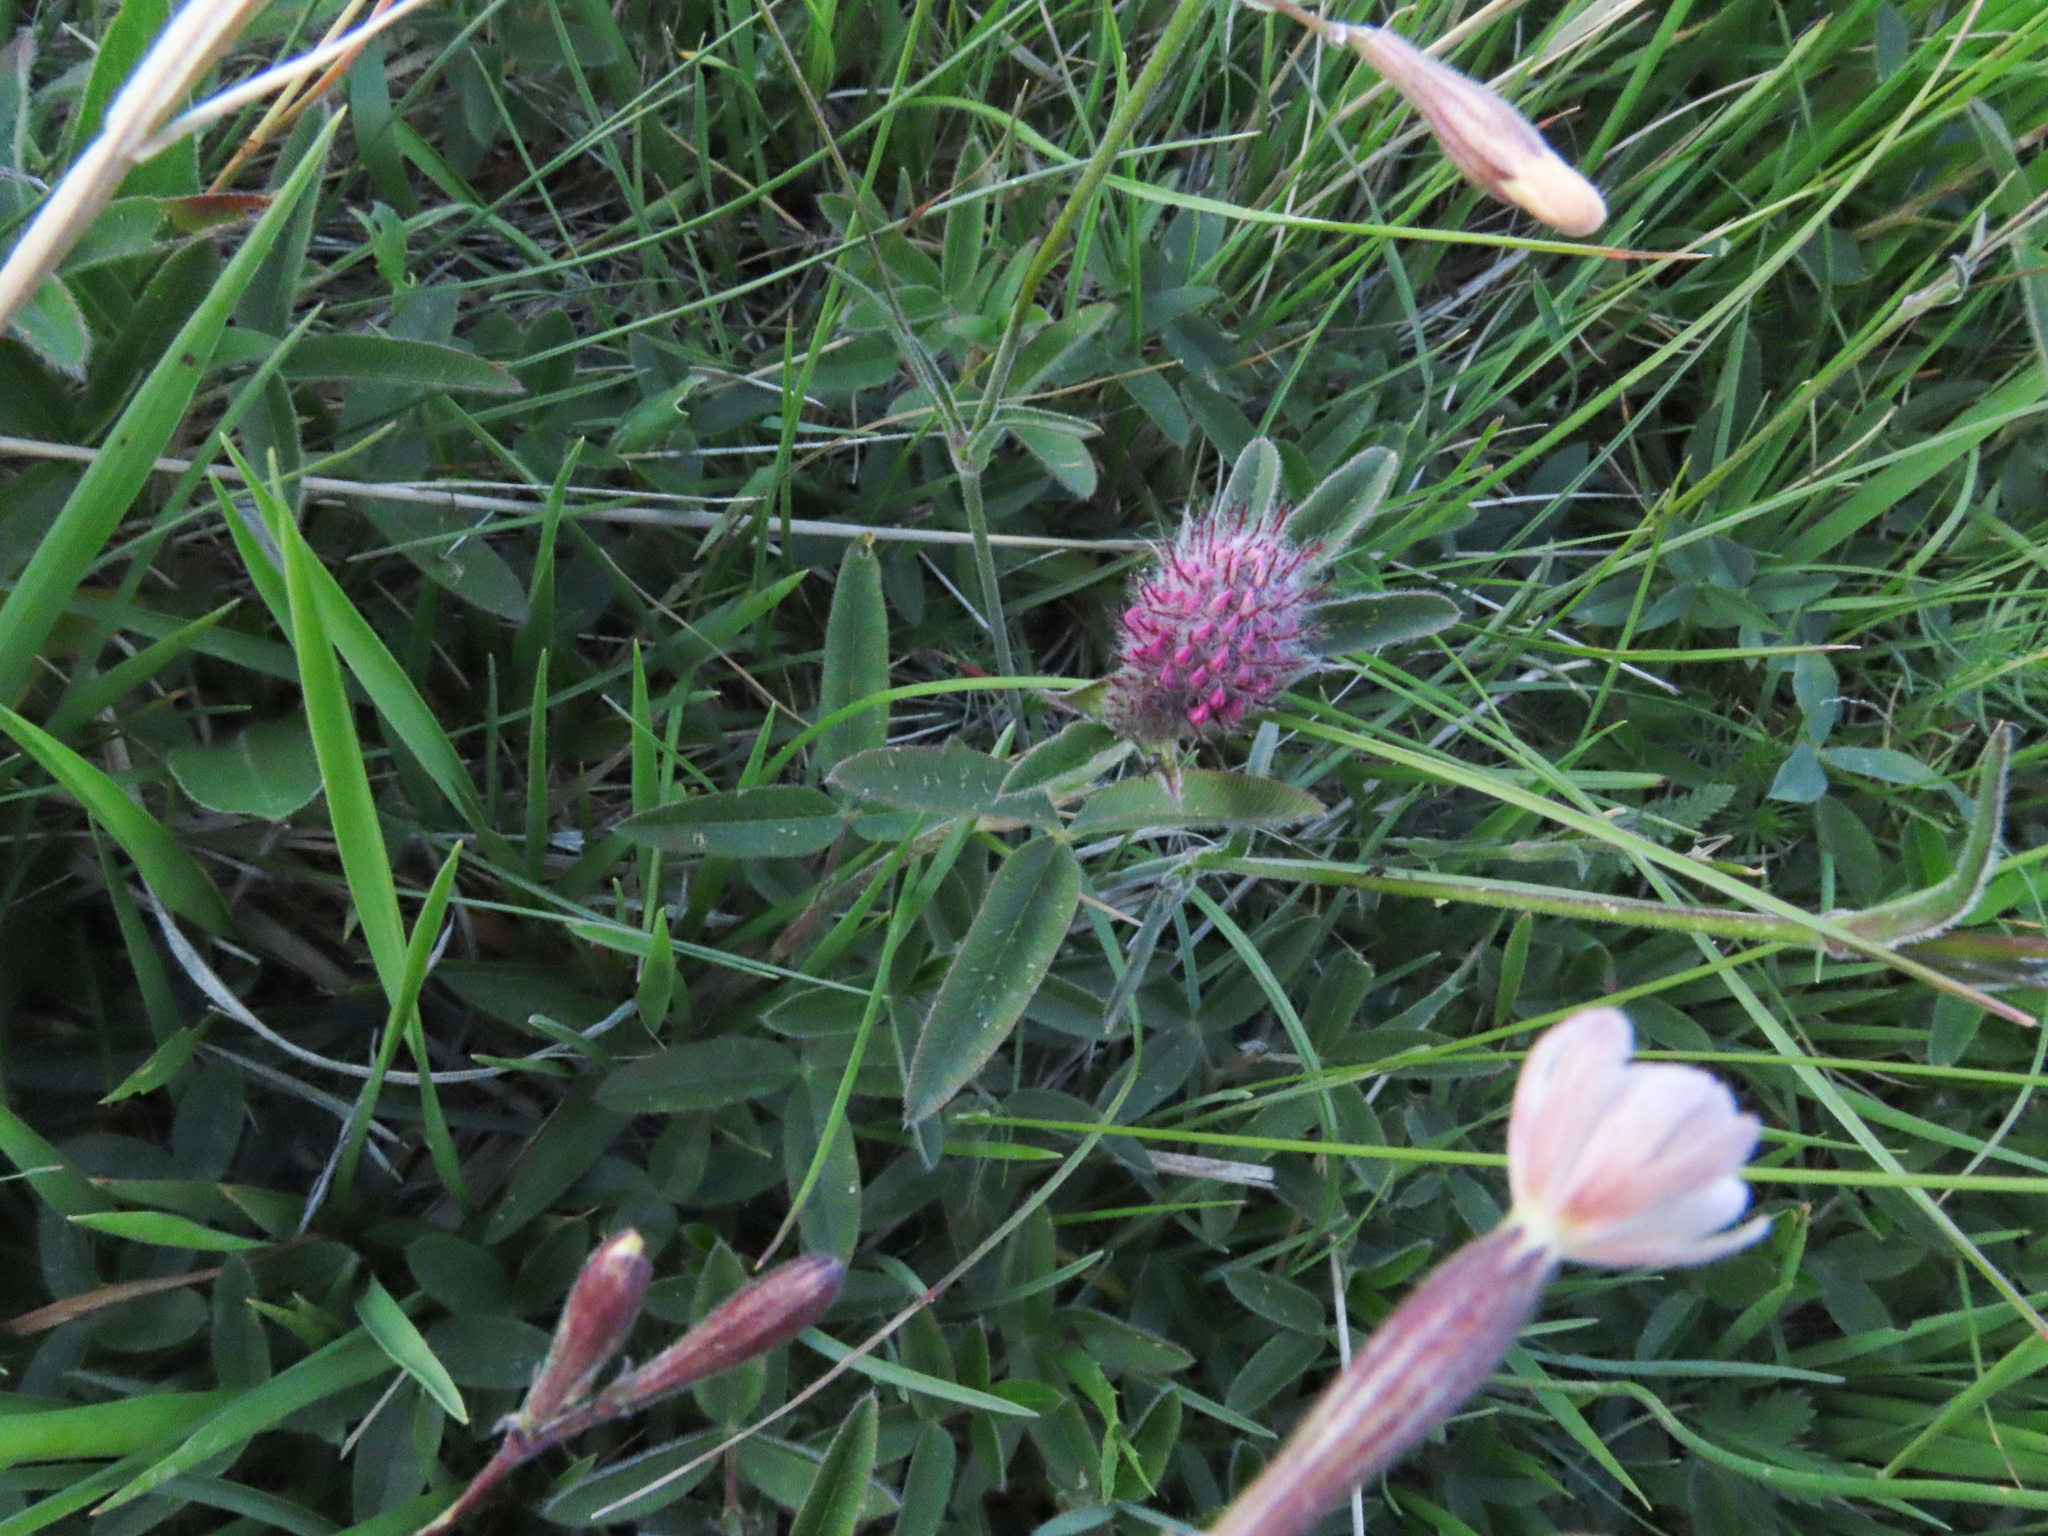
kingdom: Plantae
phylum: Tracheophyta
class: Magnoliopsida
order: Fabales
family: Fabaceae
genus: Trifolium
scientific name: Trifolium rubens
